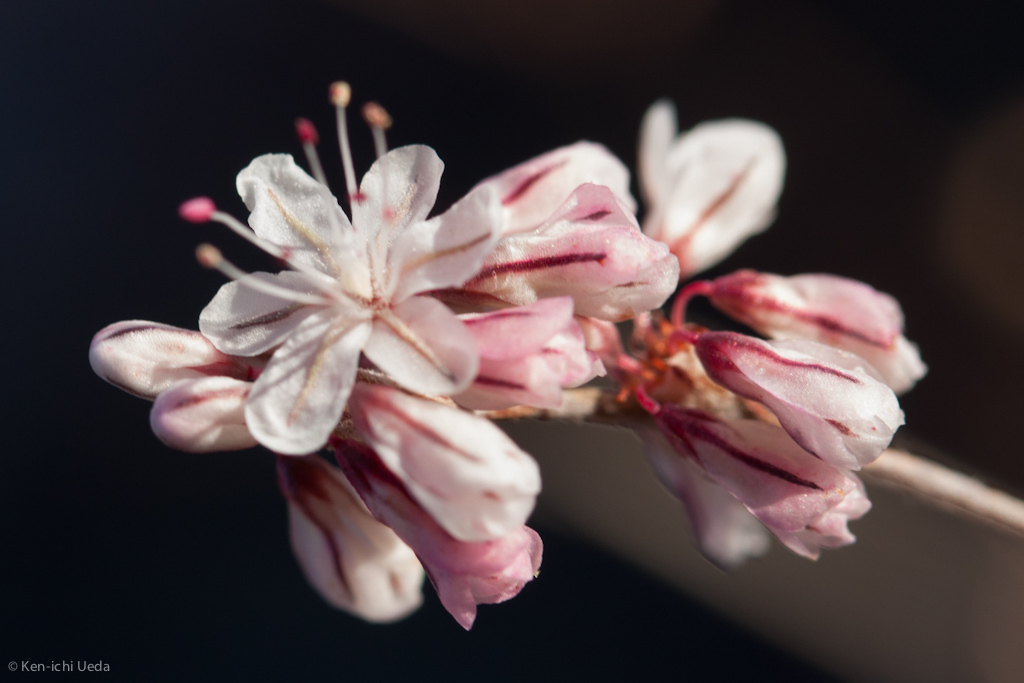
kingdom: Plantae
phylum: Tracheophyta
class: Magnoliopsida
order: Caryophyllales
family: Polygonaceae
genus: Eriogonum
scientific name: Eriogonum wrightii
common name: Bastard-sage
